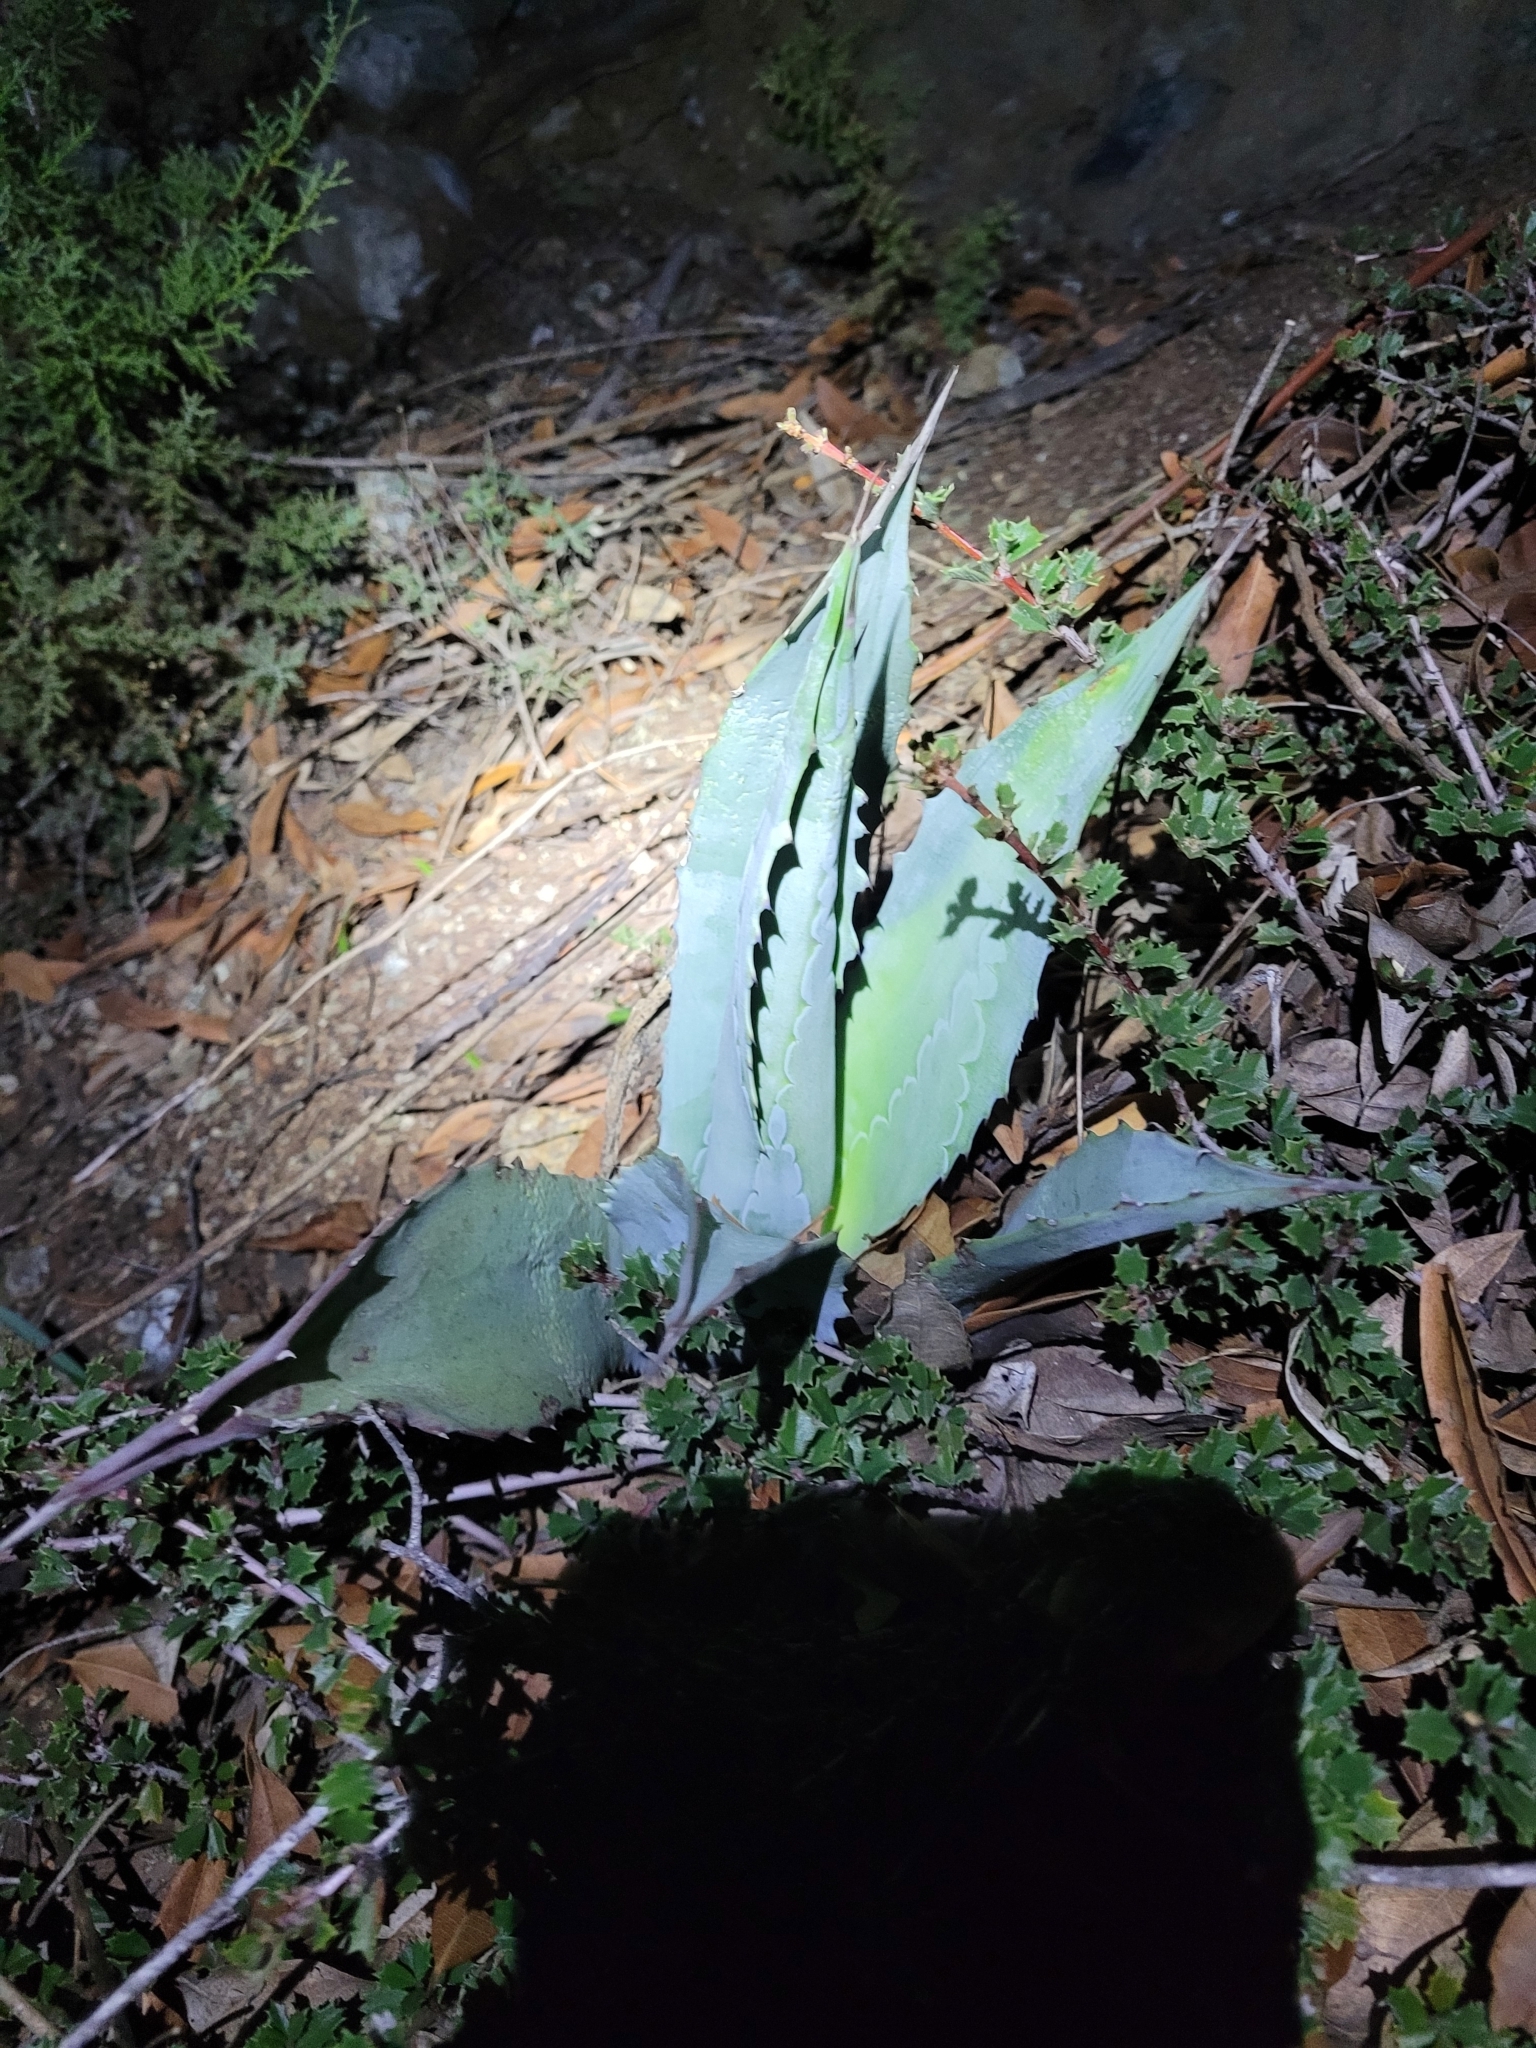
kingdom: Plantae
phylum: Tracheophyta
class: Liliopsida
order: Asparagales
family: Asparagaceae
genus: Agave
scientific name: Agave americana
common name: Centuryplant
